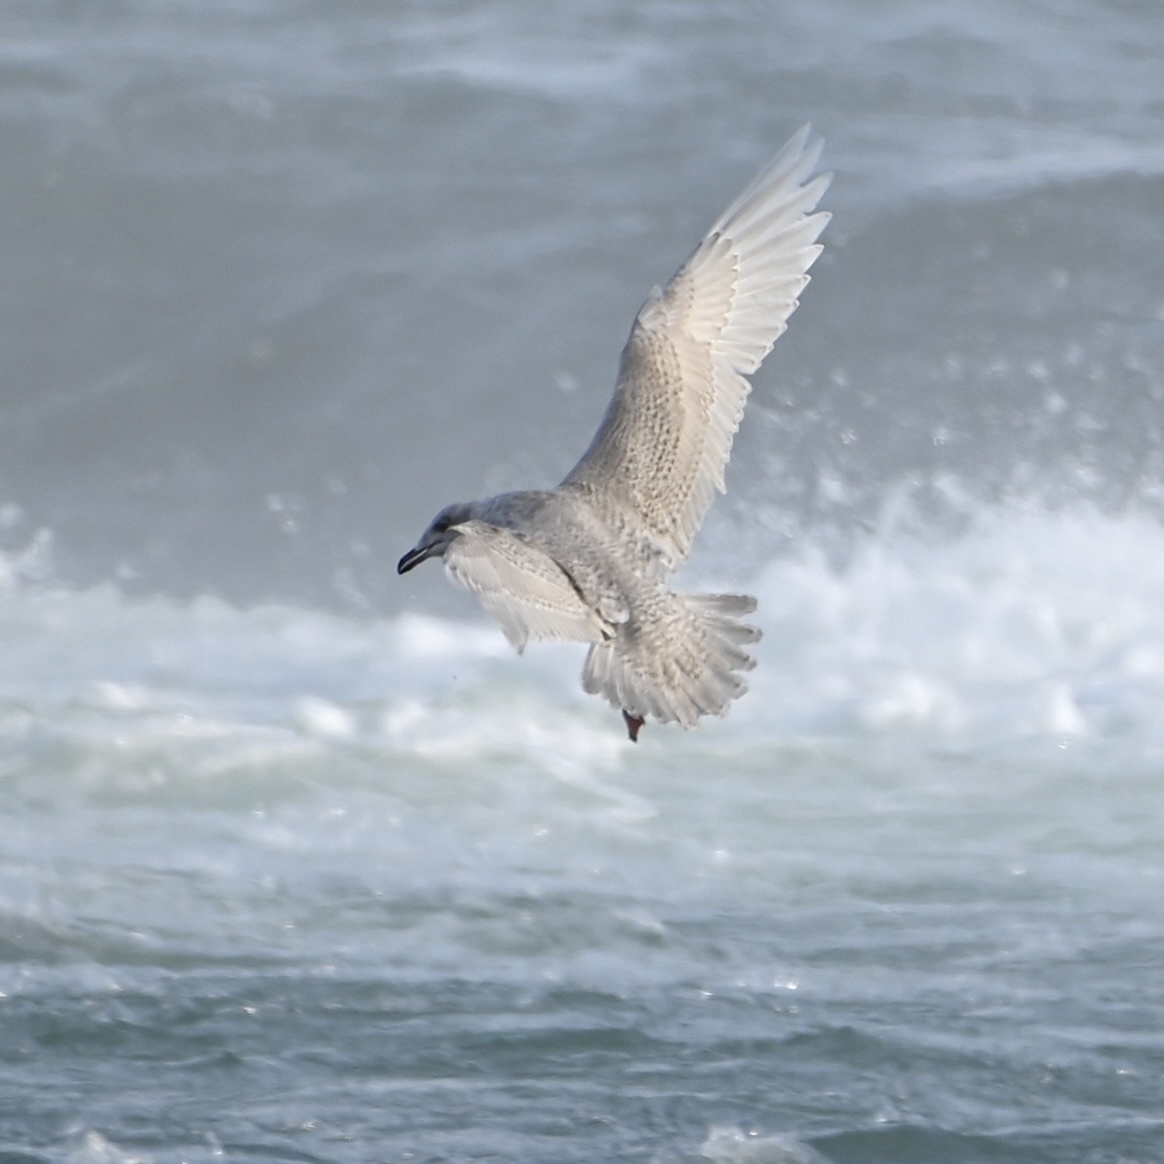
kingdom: Animalia
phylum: Chordata
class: Aves
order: Charadriiformes
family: Laridae
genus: Larus
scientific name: Larus glaucoides
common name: Iceland gull
